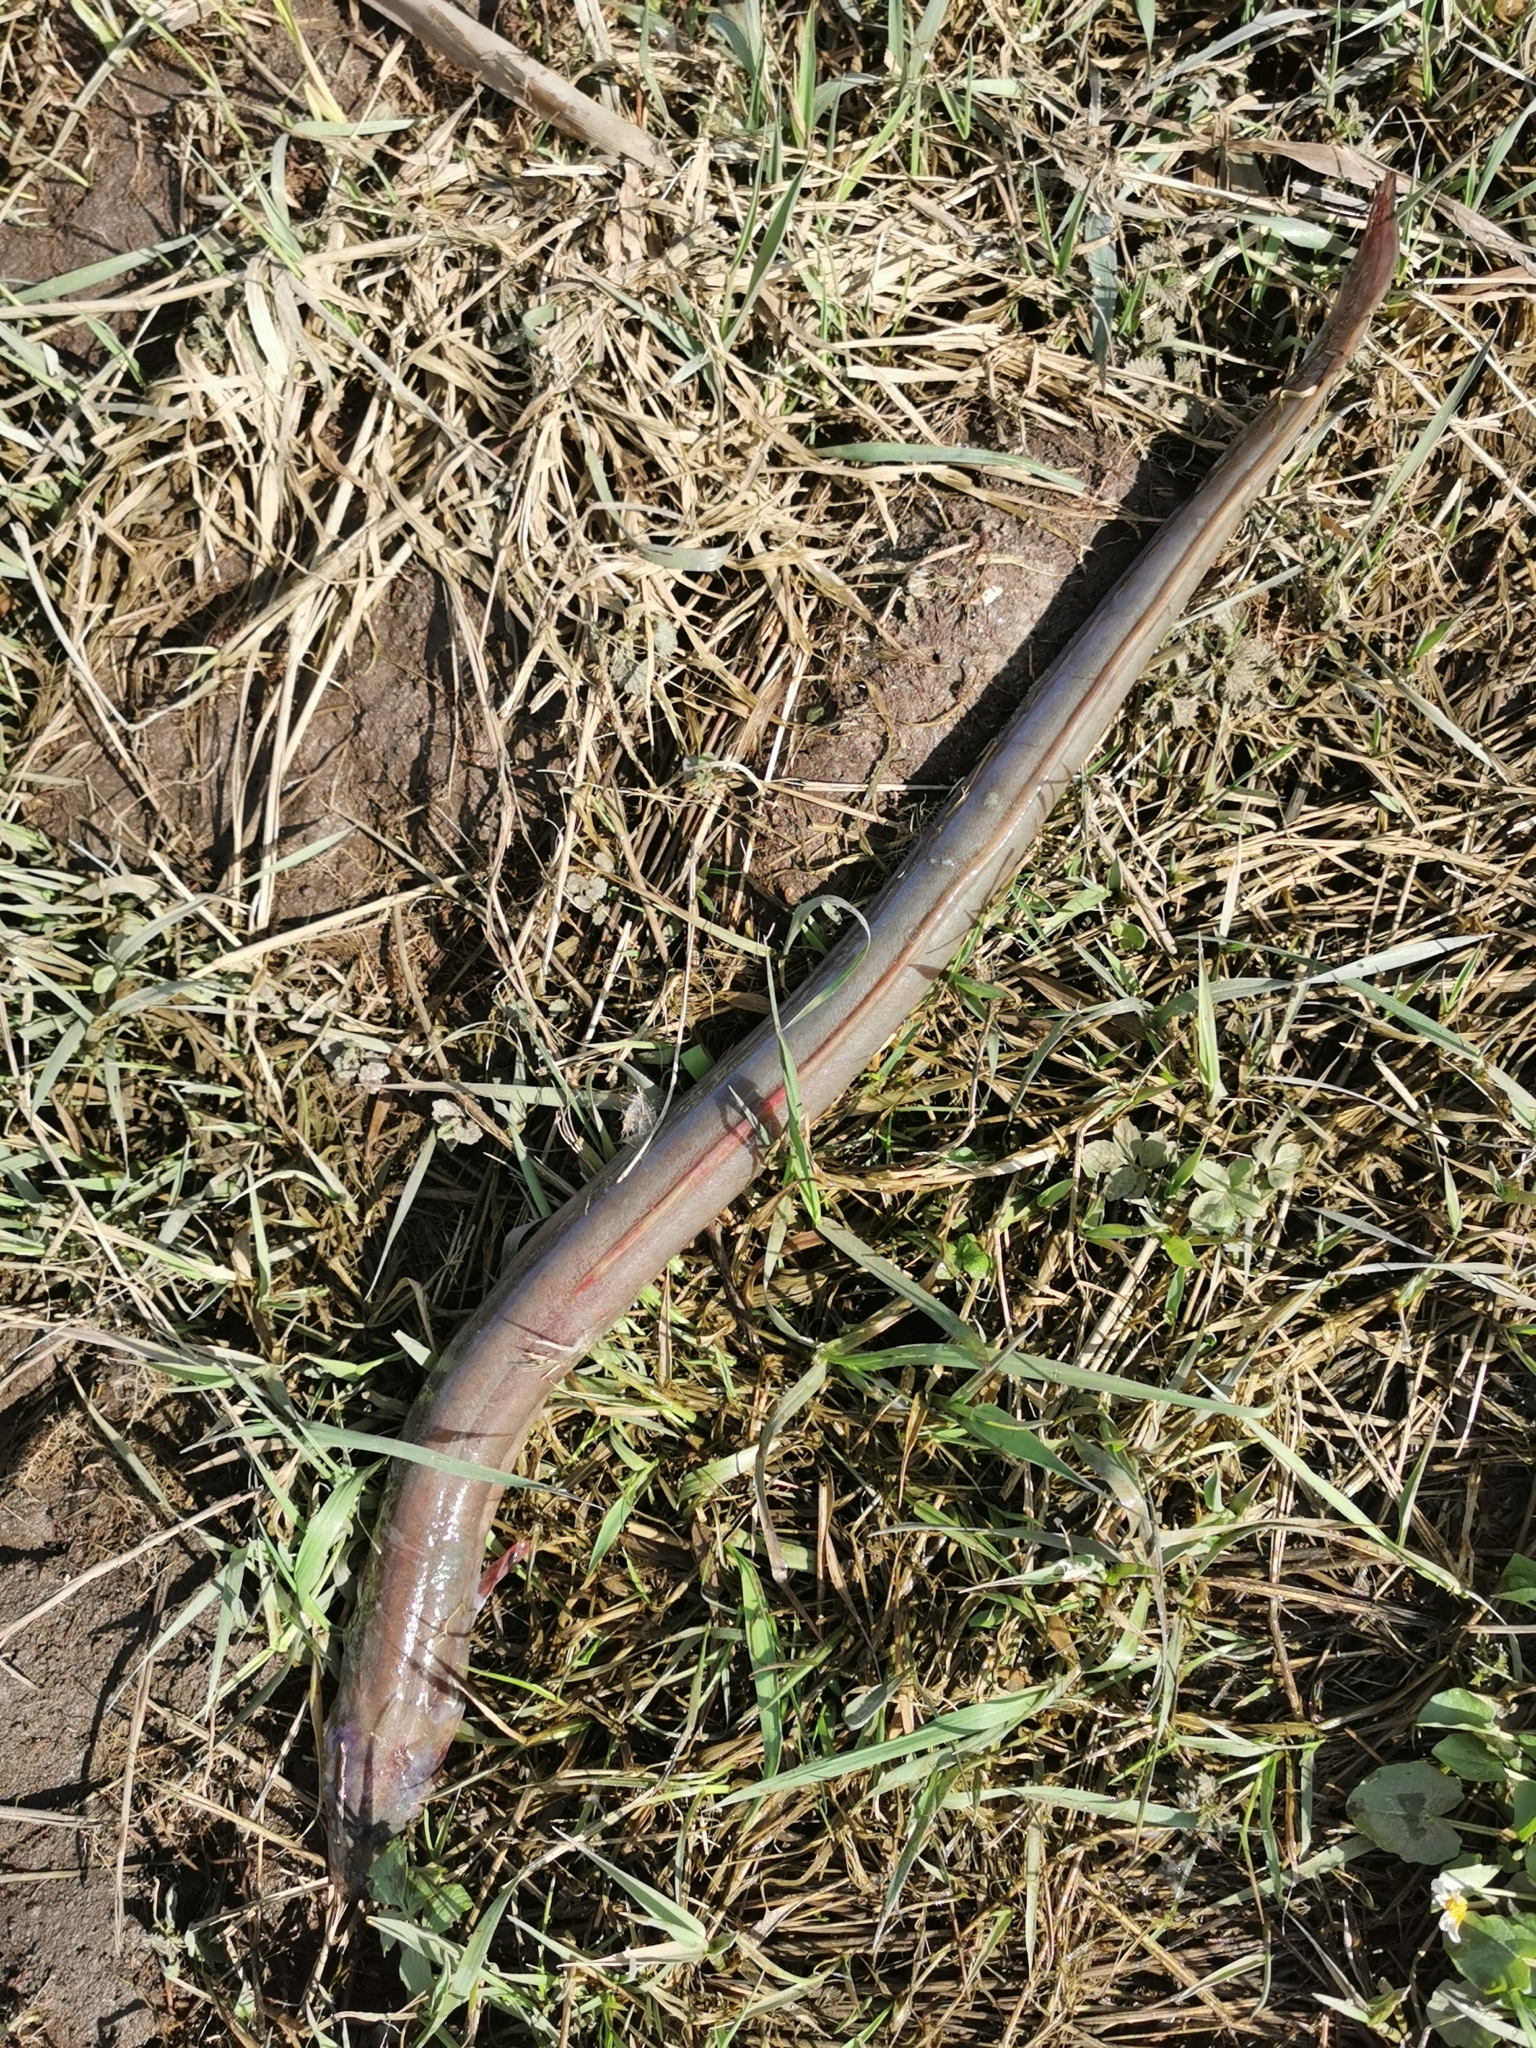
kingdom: Animalia
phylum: Chordata
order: Anguilliformes
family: Anguillidae
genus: Anguilla
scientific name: Anguilla anguilla
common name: European eel
